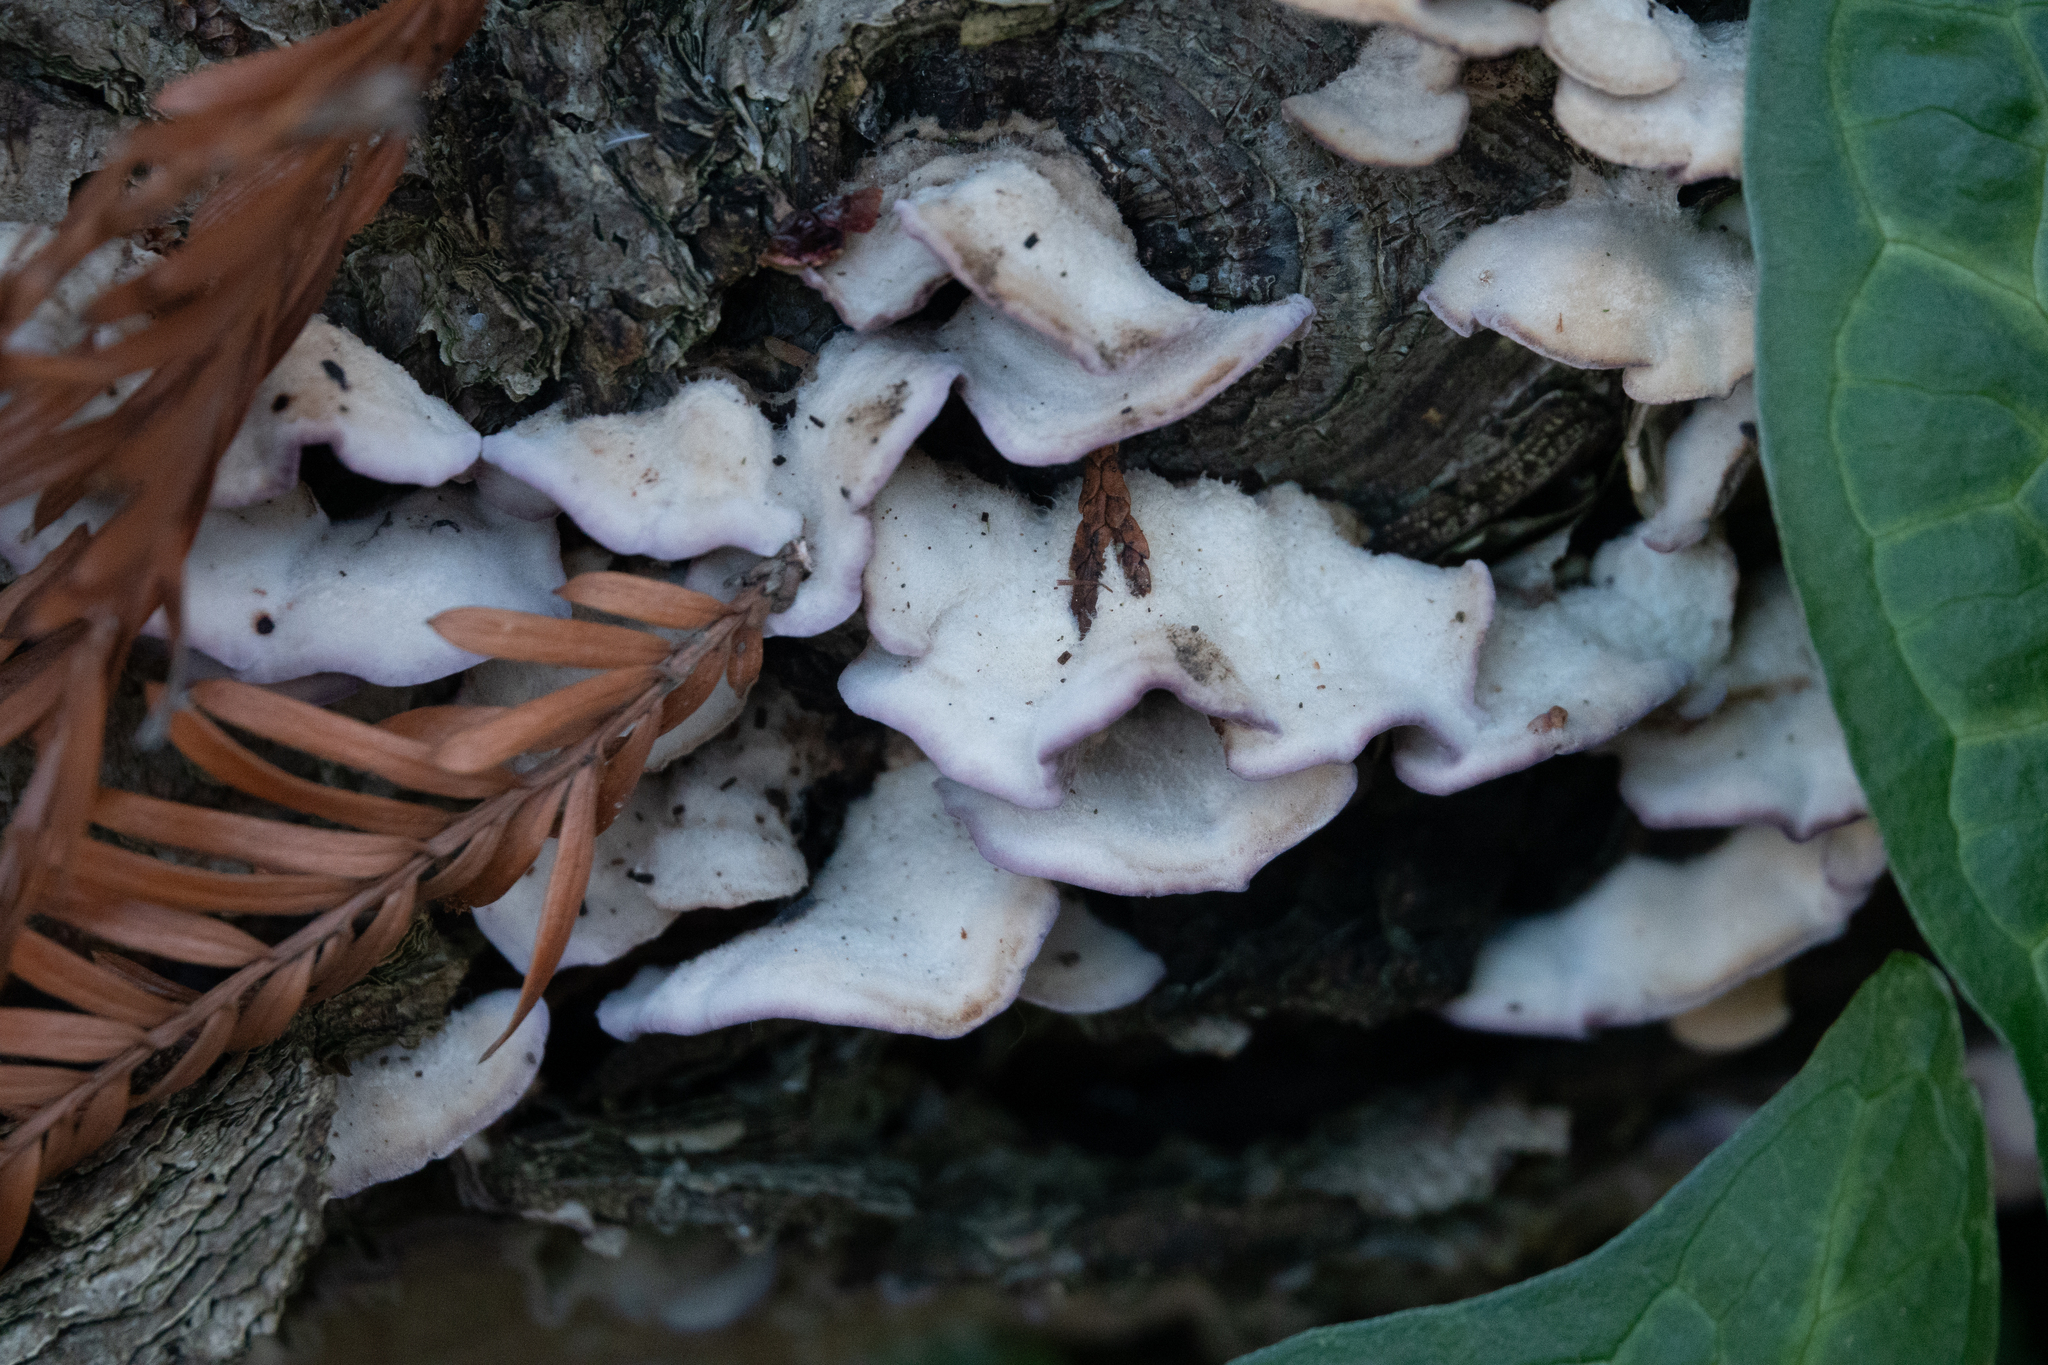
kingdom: Fungi
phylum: Basidiomycota
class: Agaricomycetes
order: Agaricales
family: Cyphellaceae
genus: Chondrostereum
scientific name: Chondrostereum purpureum
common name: Silver leaf disease
